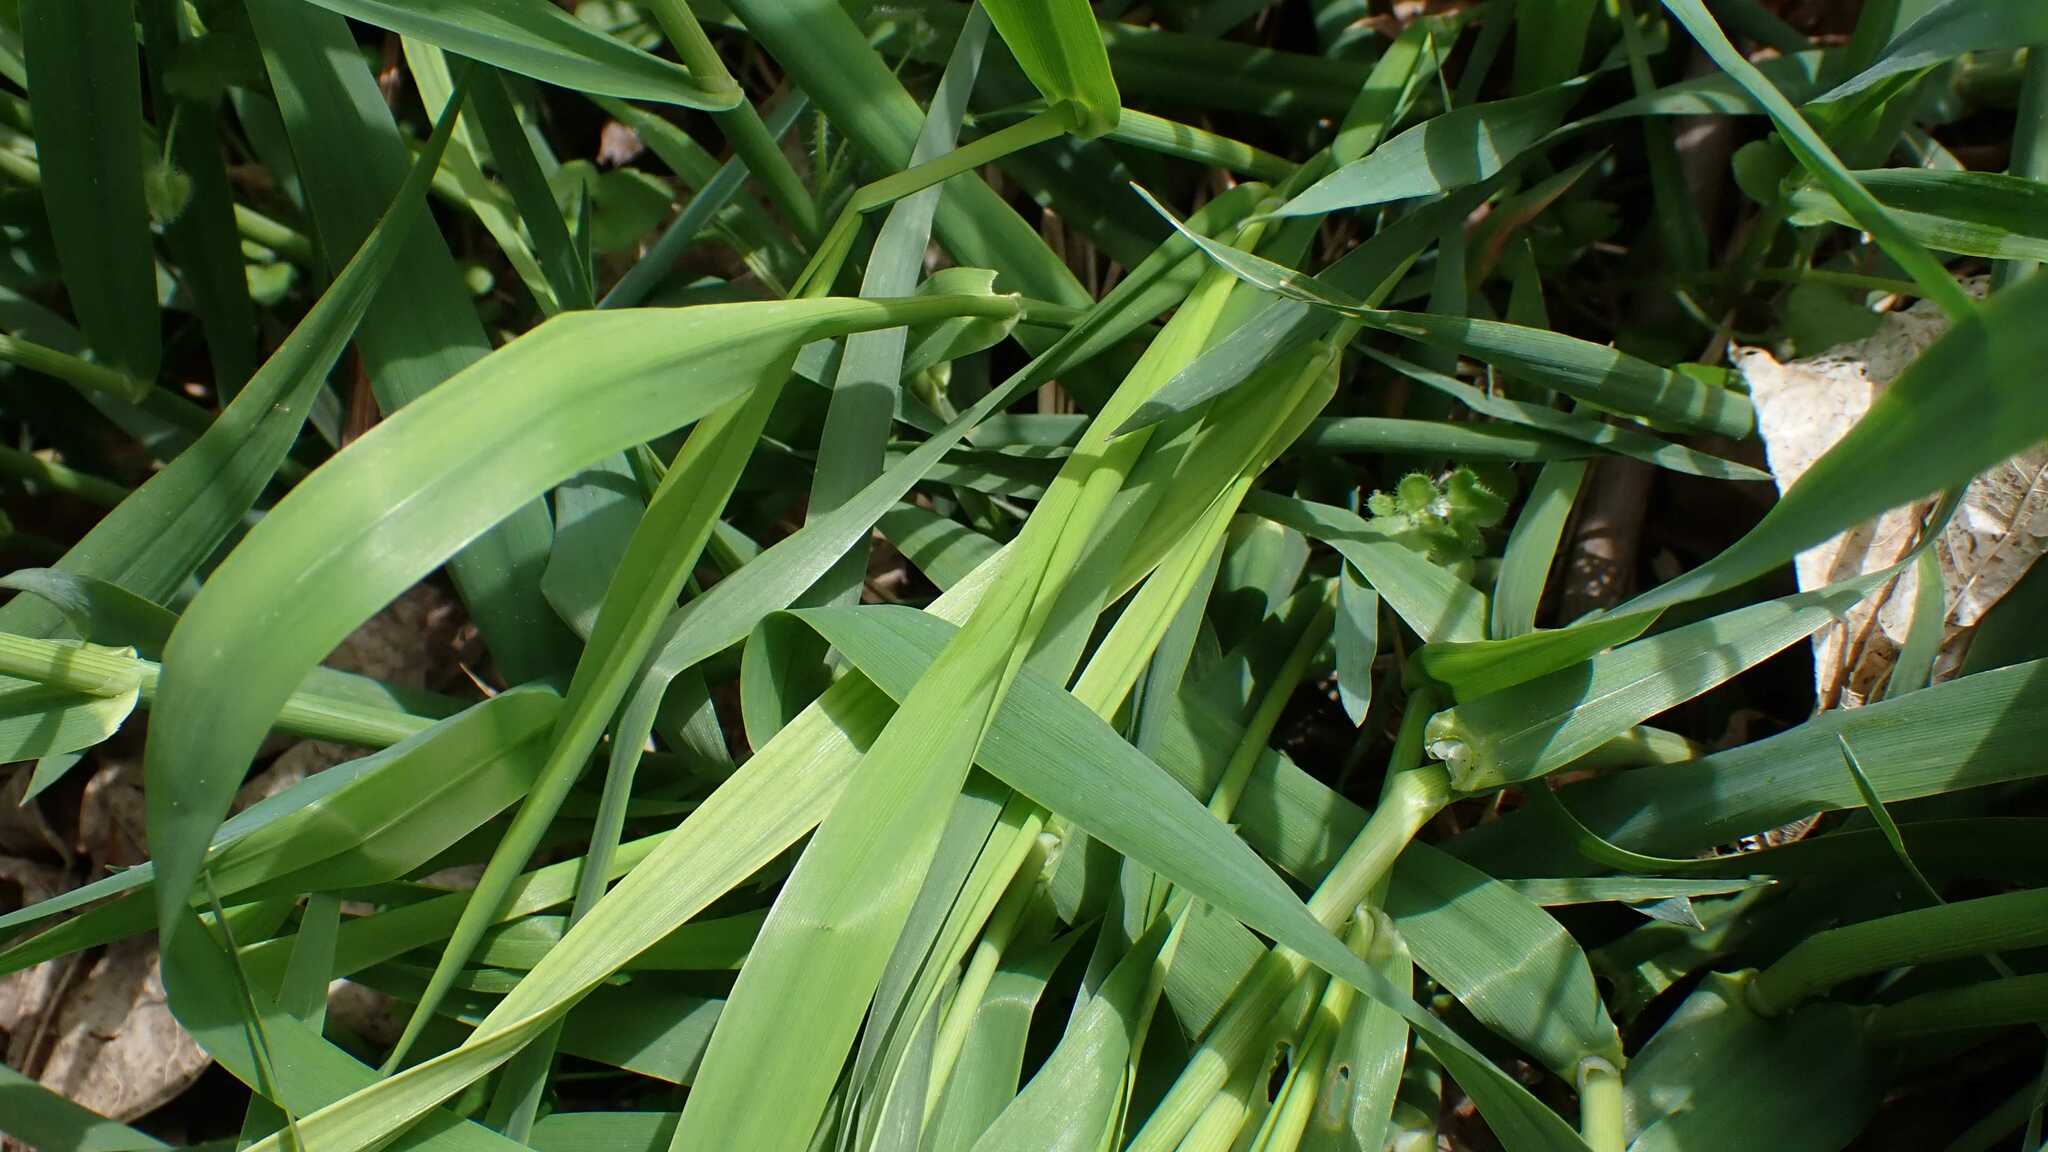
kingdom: Plantae
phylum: Tracheophyta
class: Liliopsida
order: Poales
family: Poaceae
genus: Phalaris
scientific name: Phalaris arundinacea
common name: Reed canary-grass
